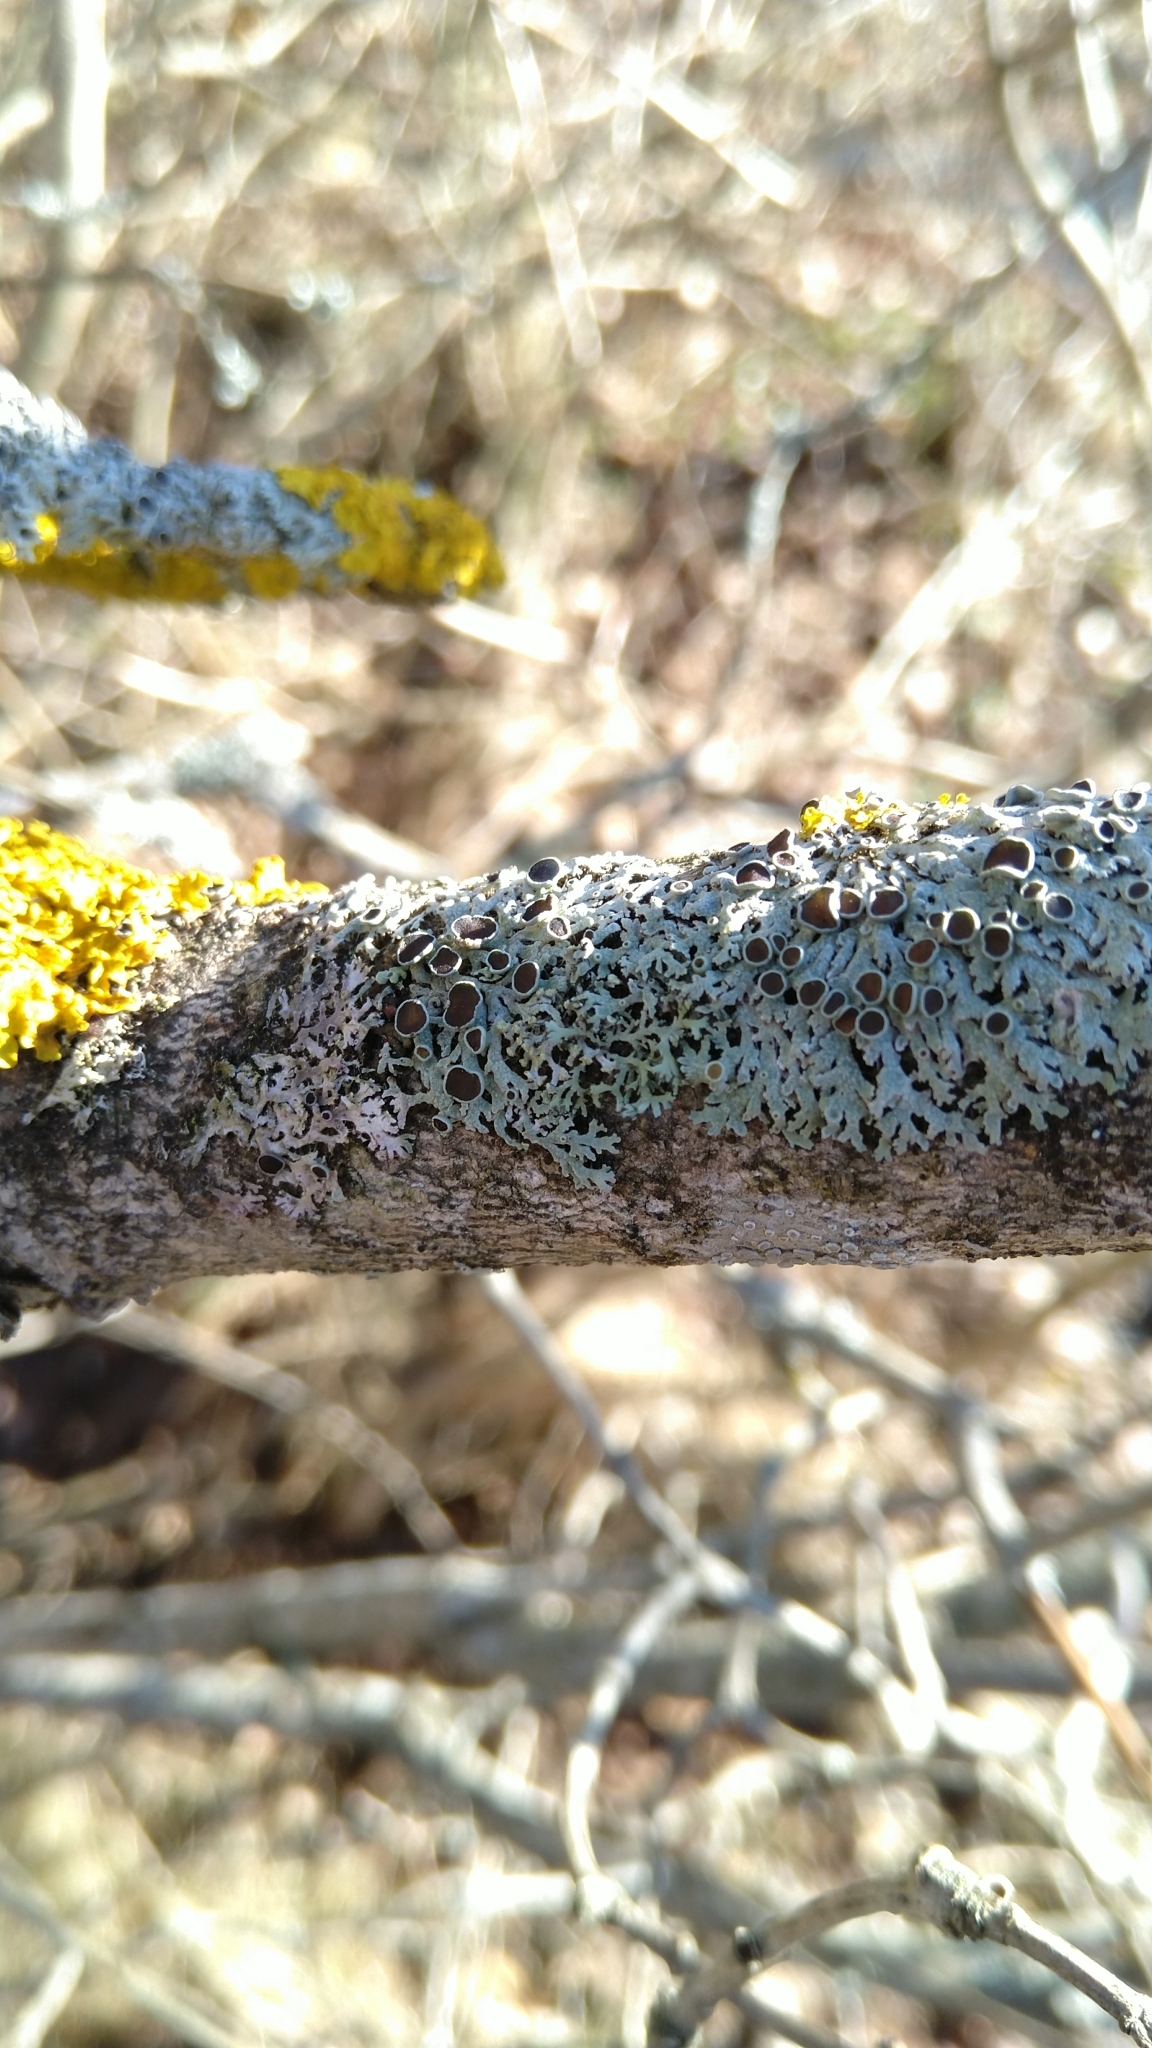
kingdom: Fungi
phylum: Ascomycota
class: Lecanoromycetes
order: Caliciales
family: Physciaceae
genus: Physcia
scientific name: Physcia aipolia
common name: Hoary rosette lichen
